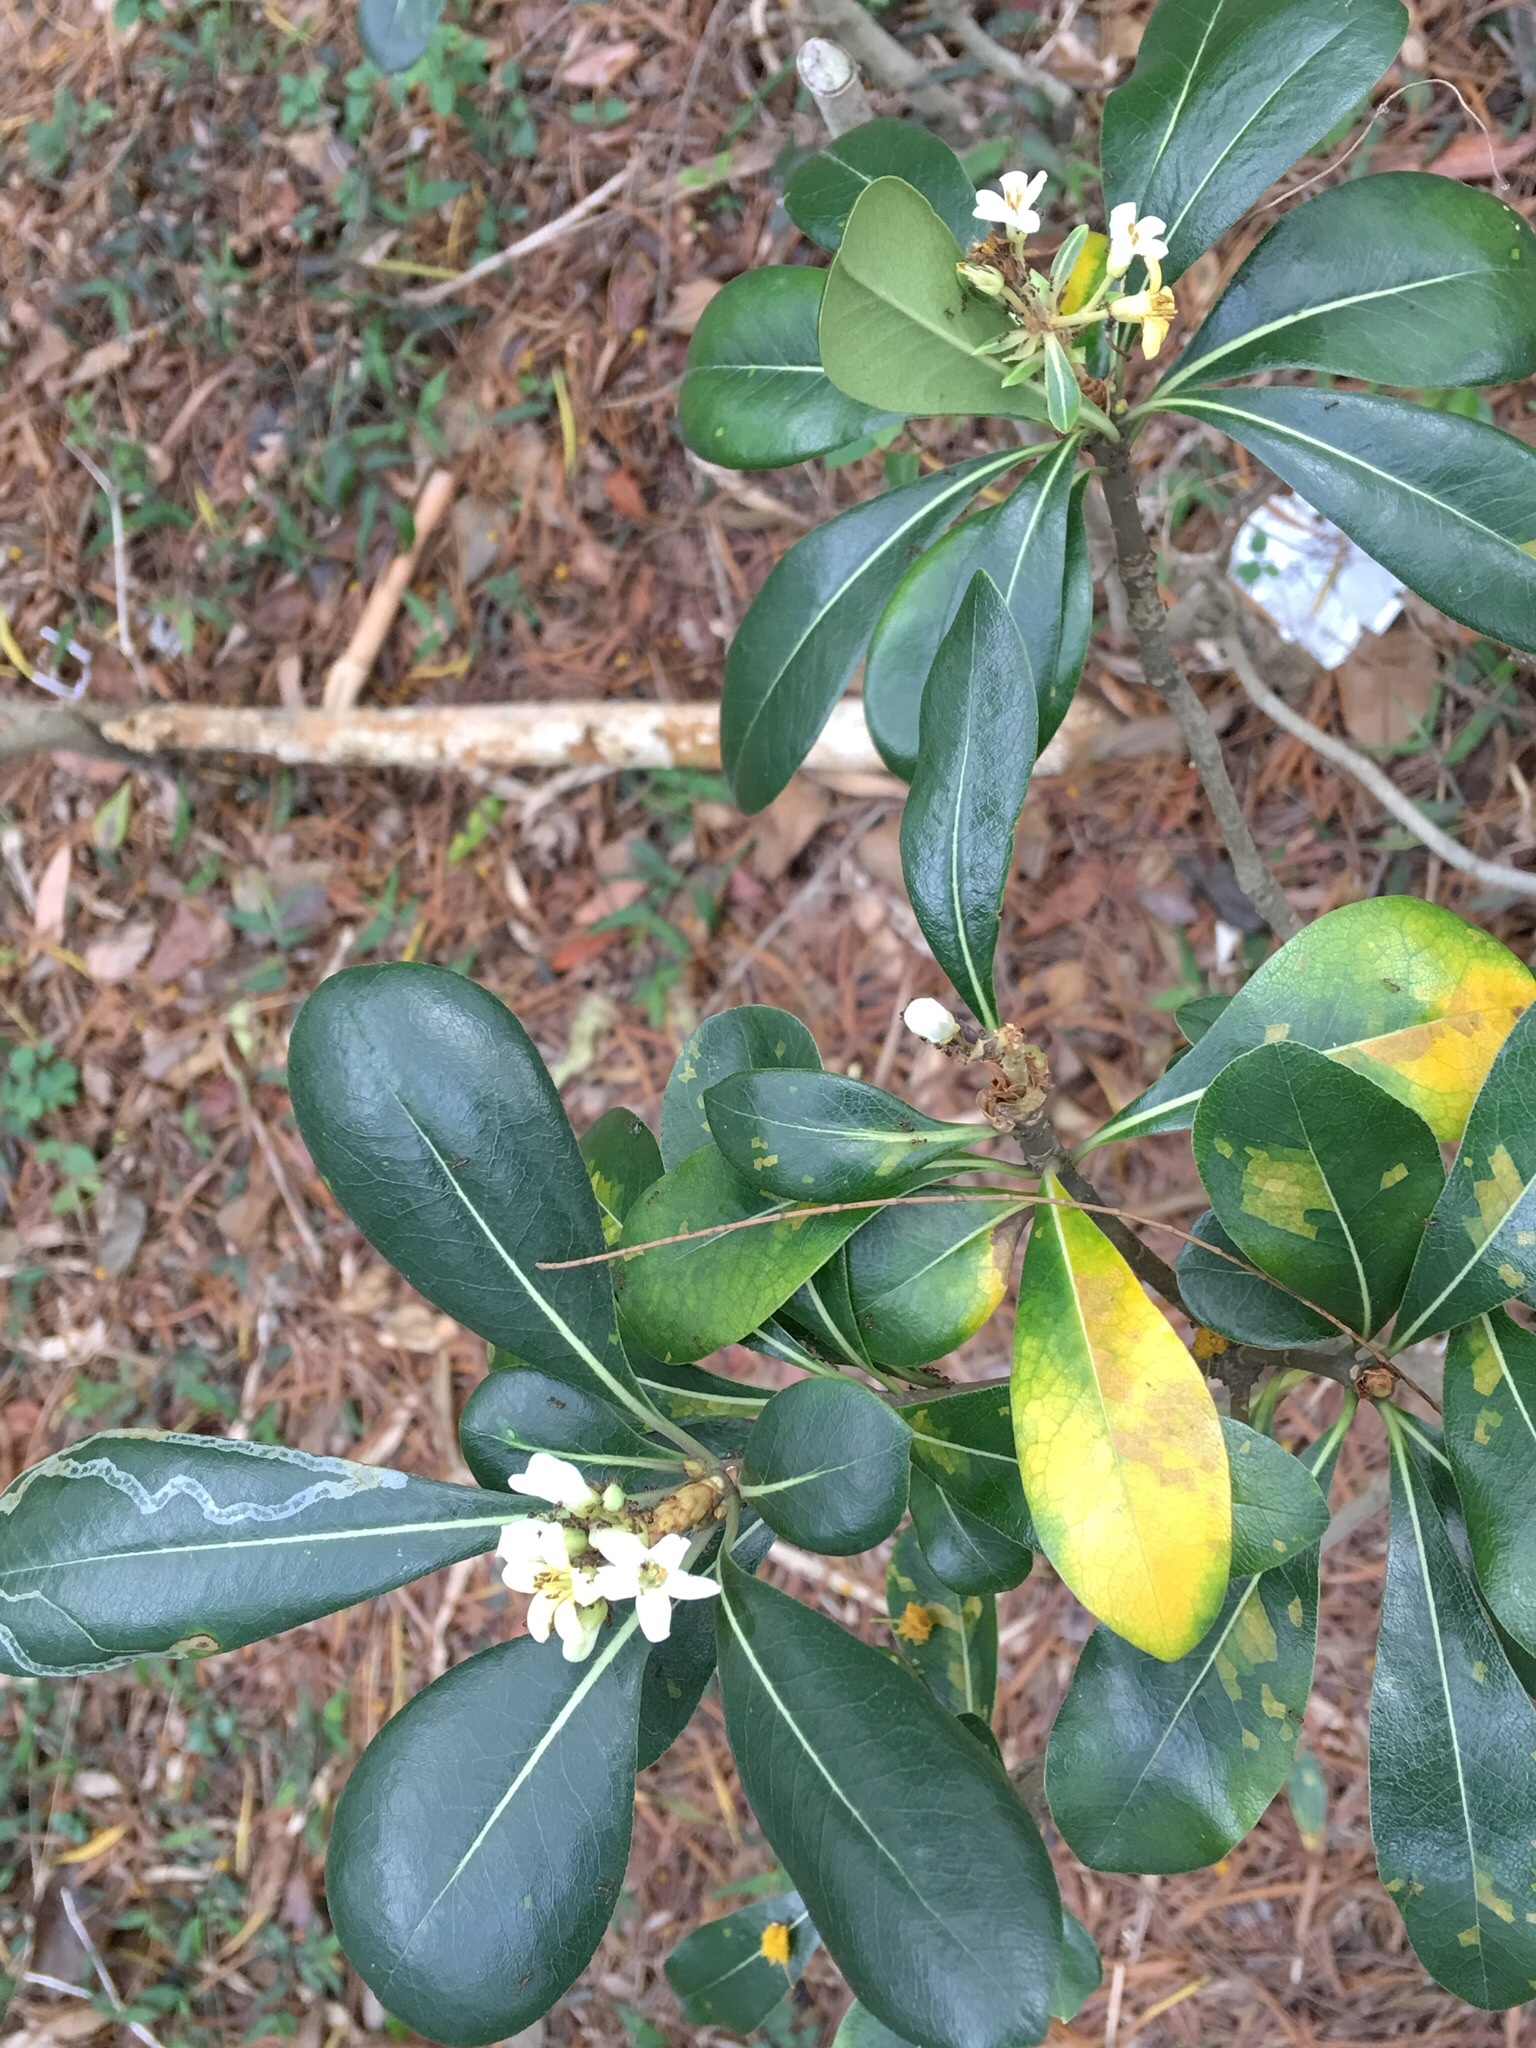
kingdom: Plantae
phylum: Tracheophyta
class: Magnoliopsida
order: Apiales
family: Pittosporaceae
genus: Pittosporum
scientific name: Pittosporum tobira
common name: Japanese cheesewood
